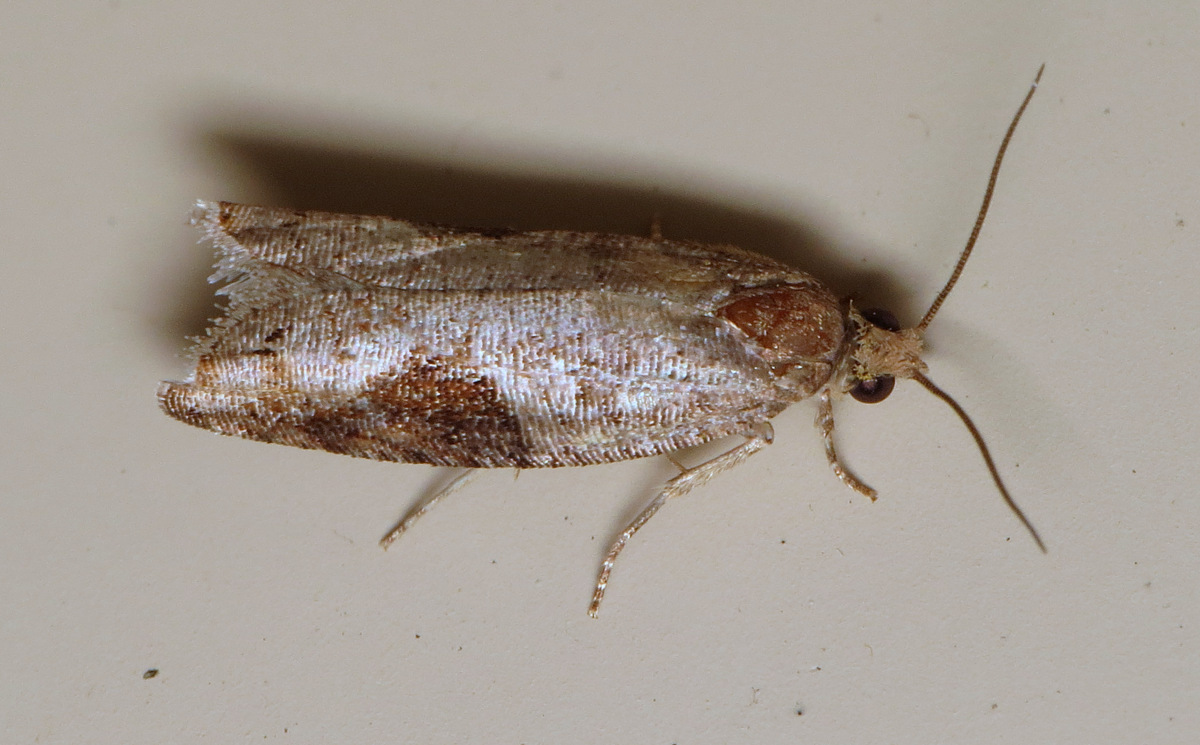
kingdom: Animalia
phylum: Arthropoda
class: Insecta
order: Lepidoptera
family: Tortricidae
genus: Pseudexentera
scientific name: Pseudexentera virginiana
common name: Virginia pseudexentera moth
